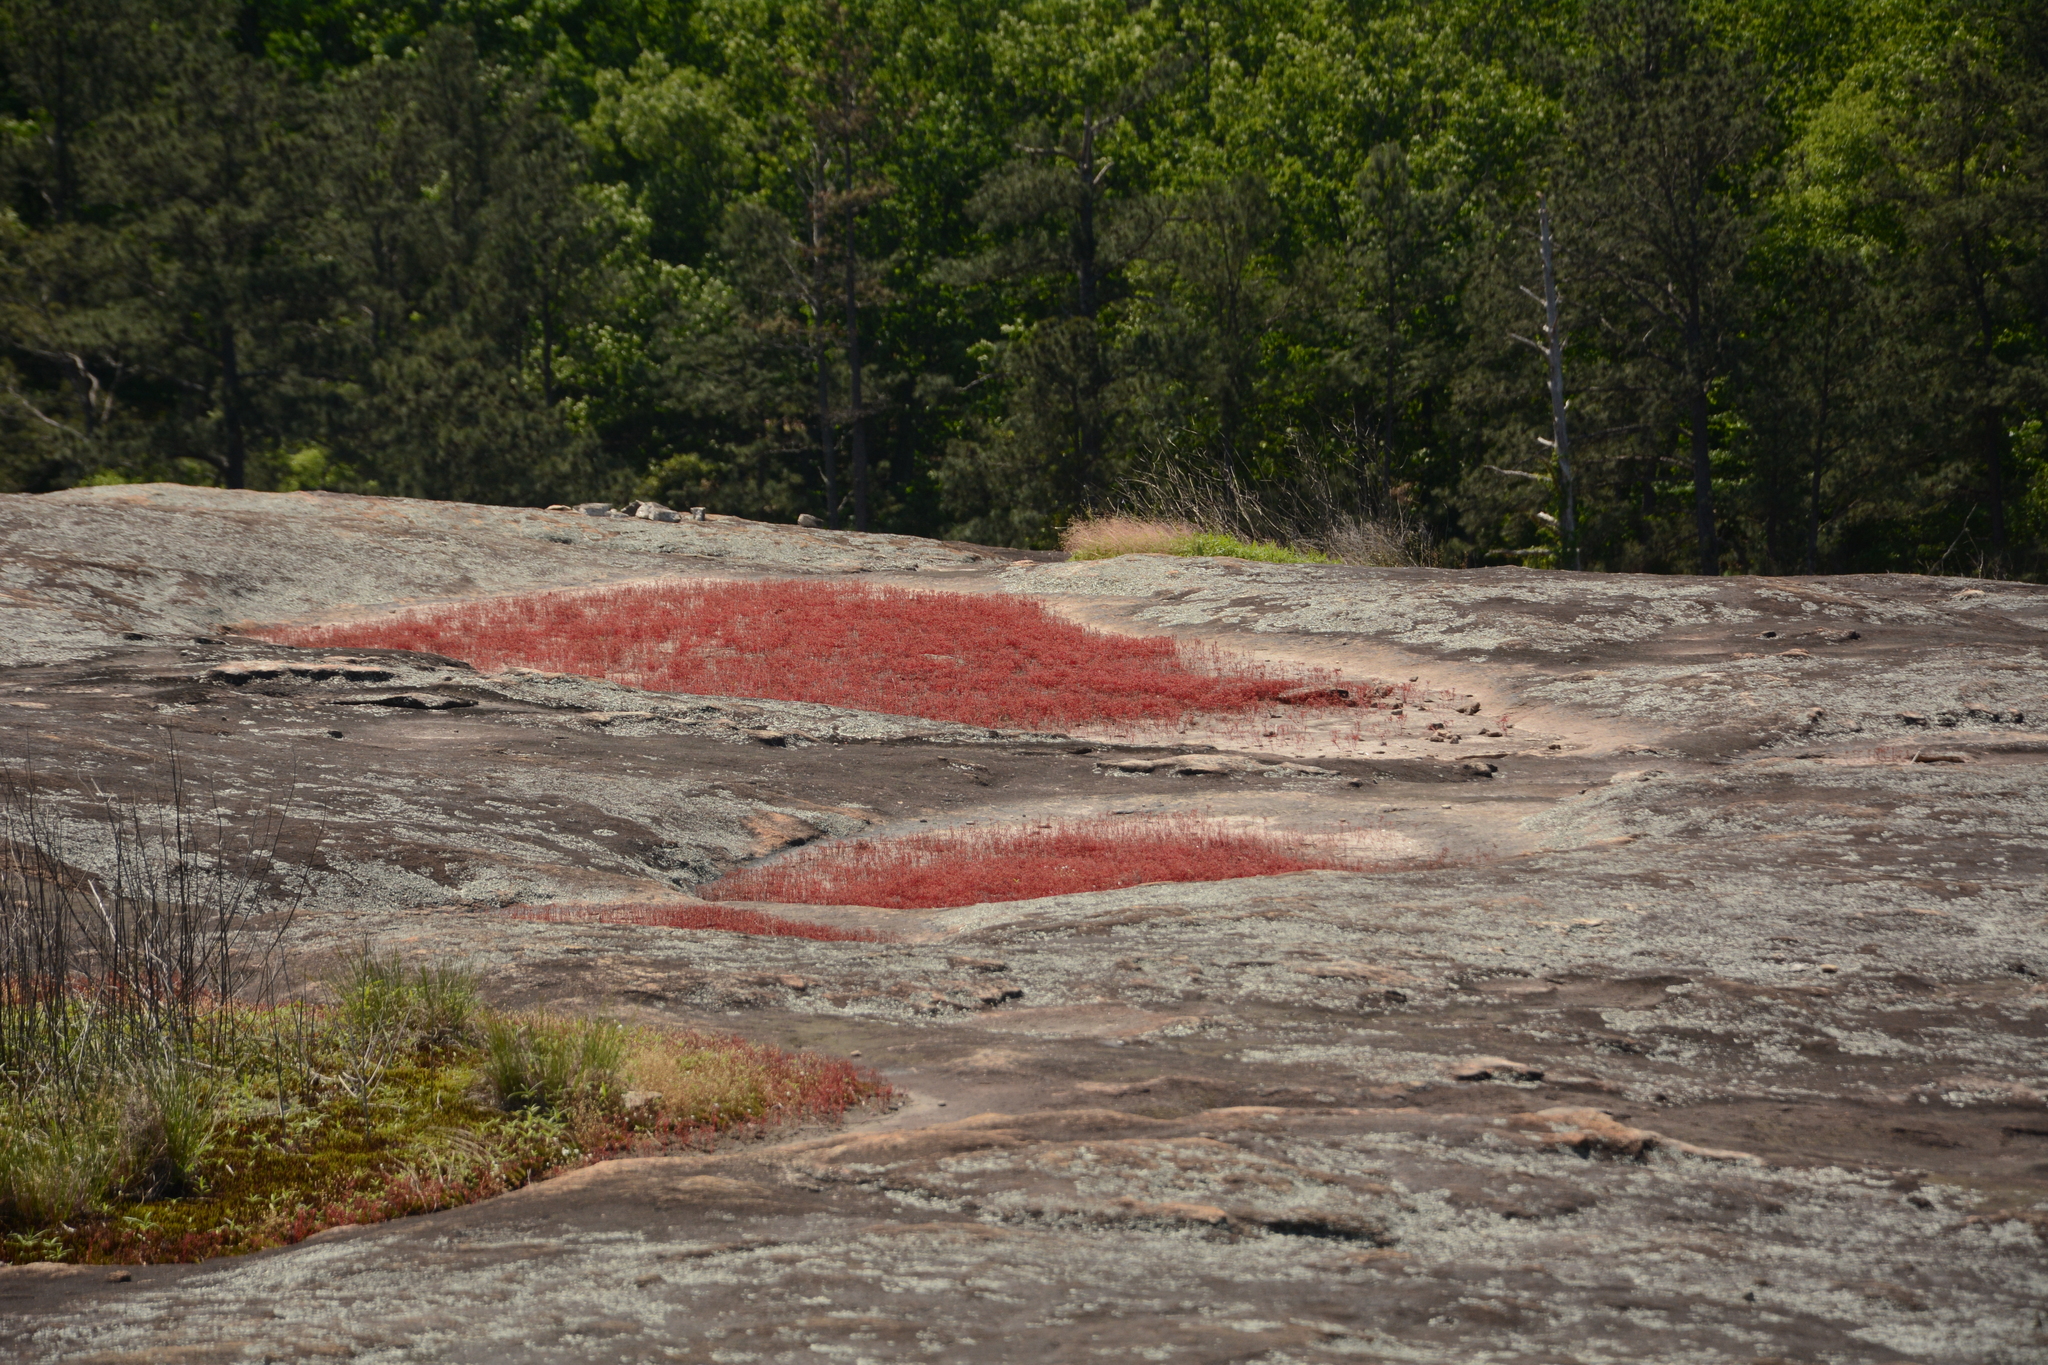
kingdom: Plantae
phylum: Tracheophyta
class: Magnoliopsida
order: Saxifragales
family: Crassulaceae
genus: Sedum
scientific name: Sedum smallii
